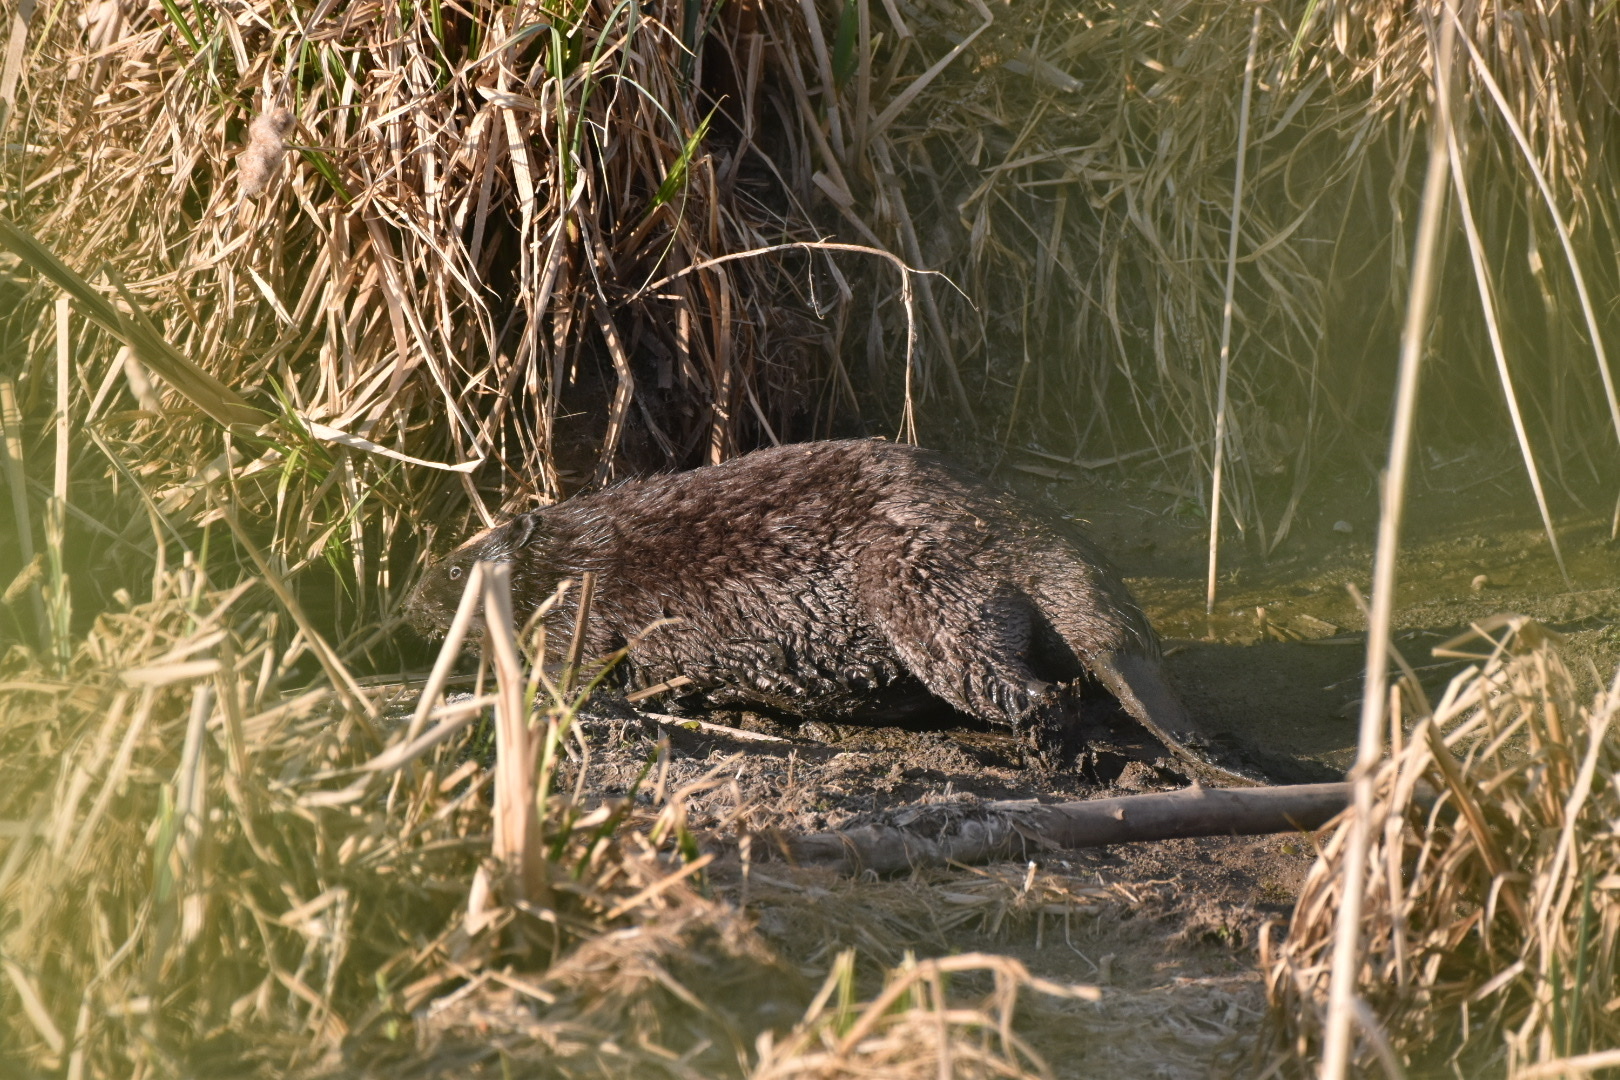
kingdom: Animalia
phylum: Chordata
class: Mammalia
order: Rodentia
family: Castoridae
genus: Castor
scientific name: Castor fiber
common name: Eurasian beaver
